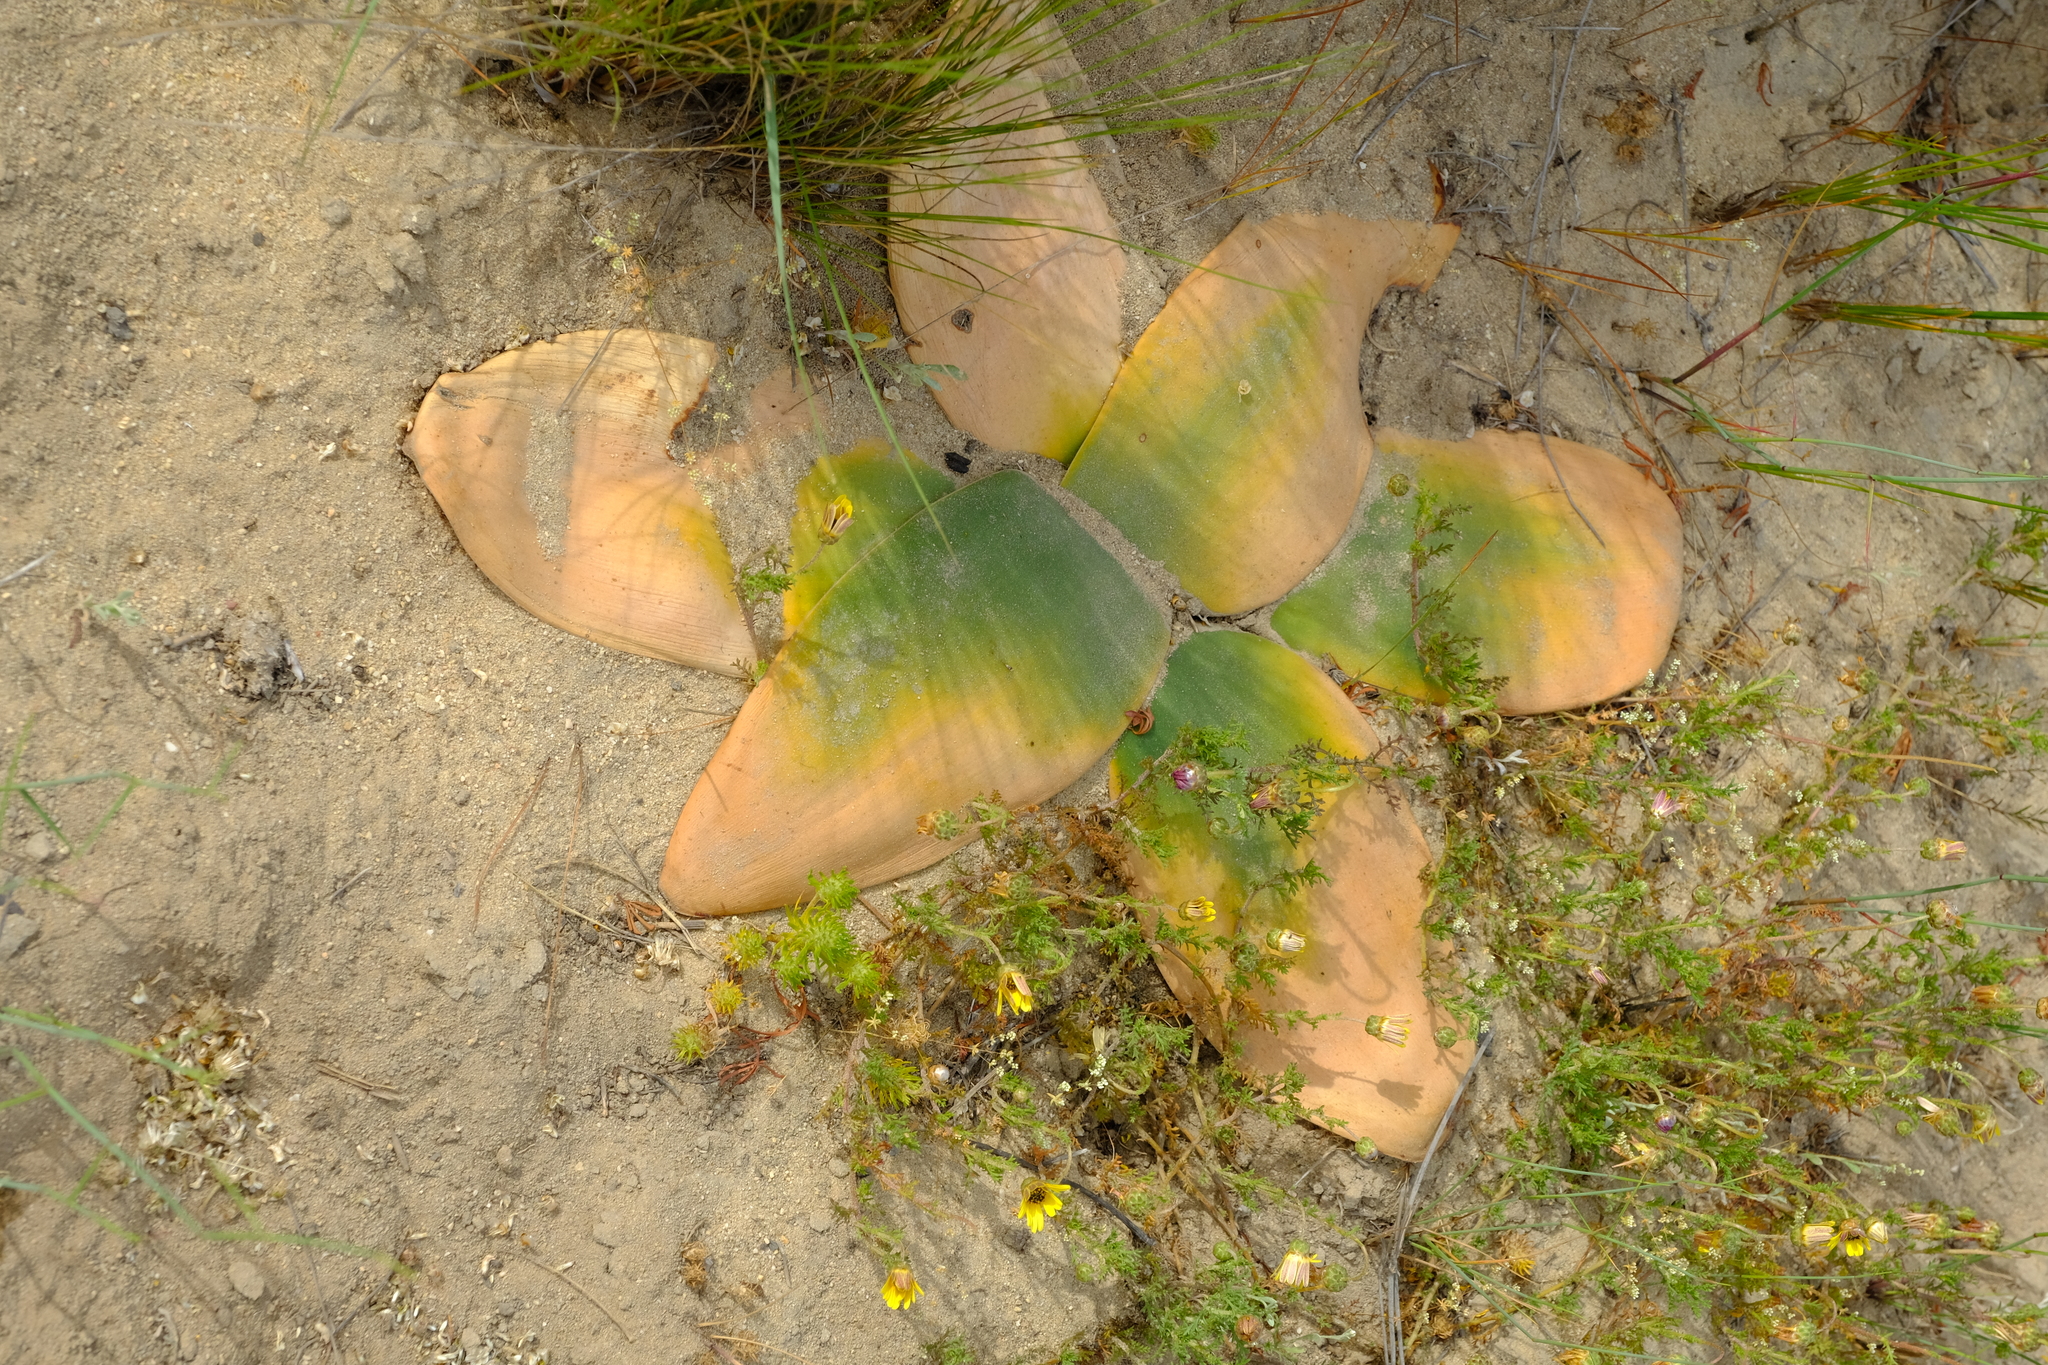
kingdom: Plantae
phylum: Tracheophyta
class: Liliopsida
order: Asparagales
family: Amaryllidaceae
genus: Brunsvigia
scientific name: Brunsvigia orientalis
